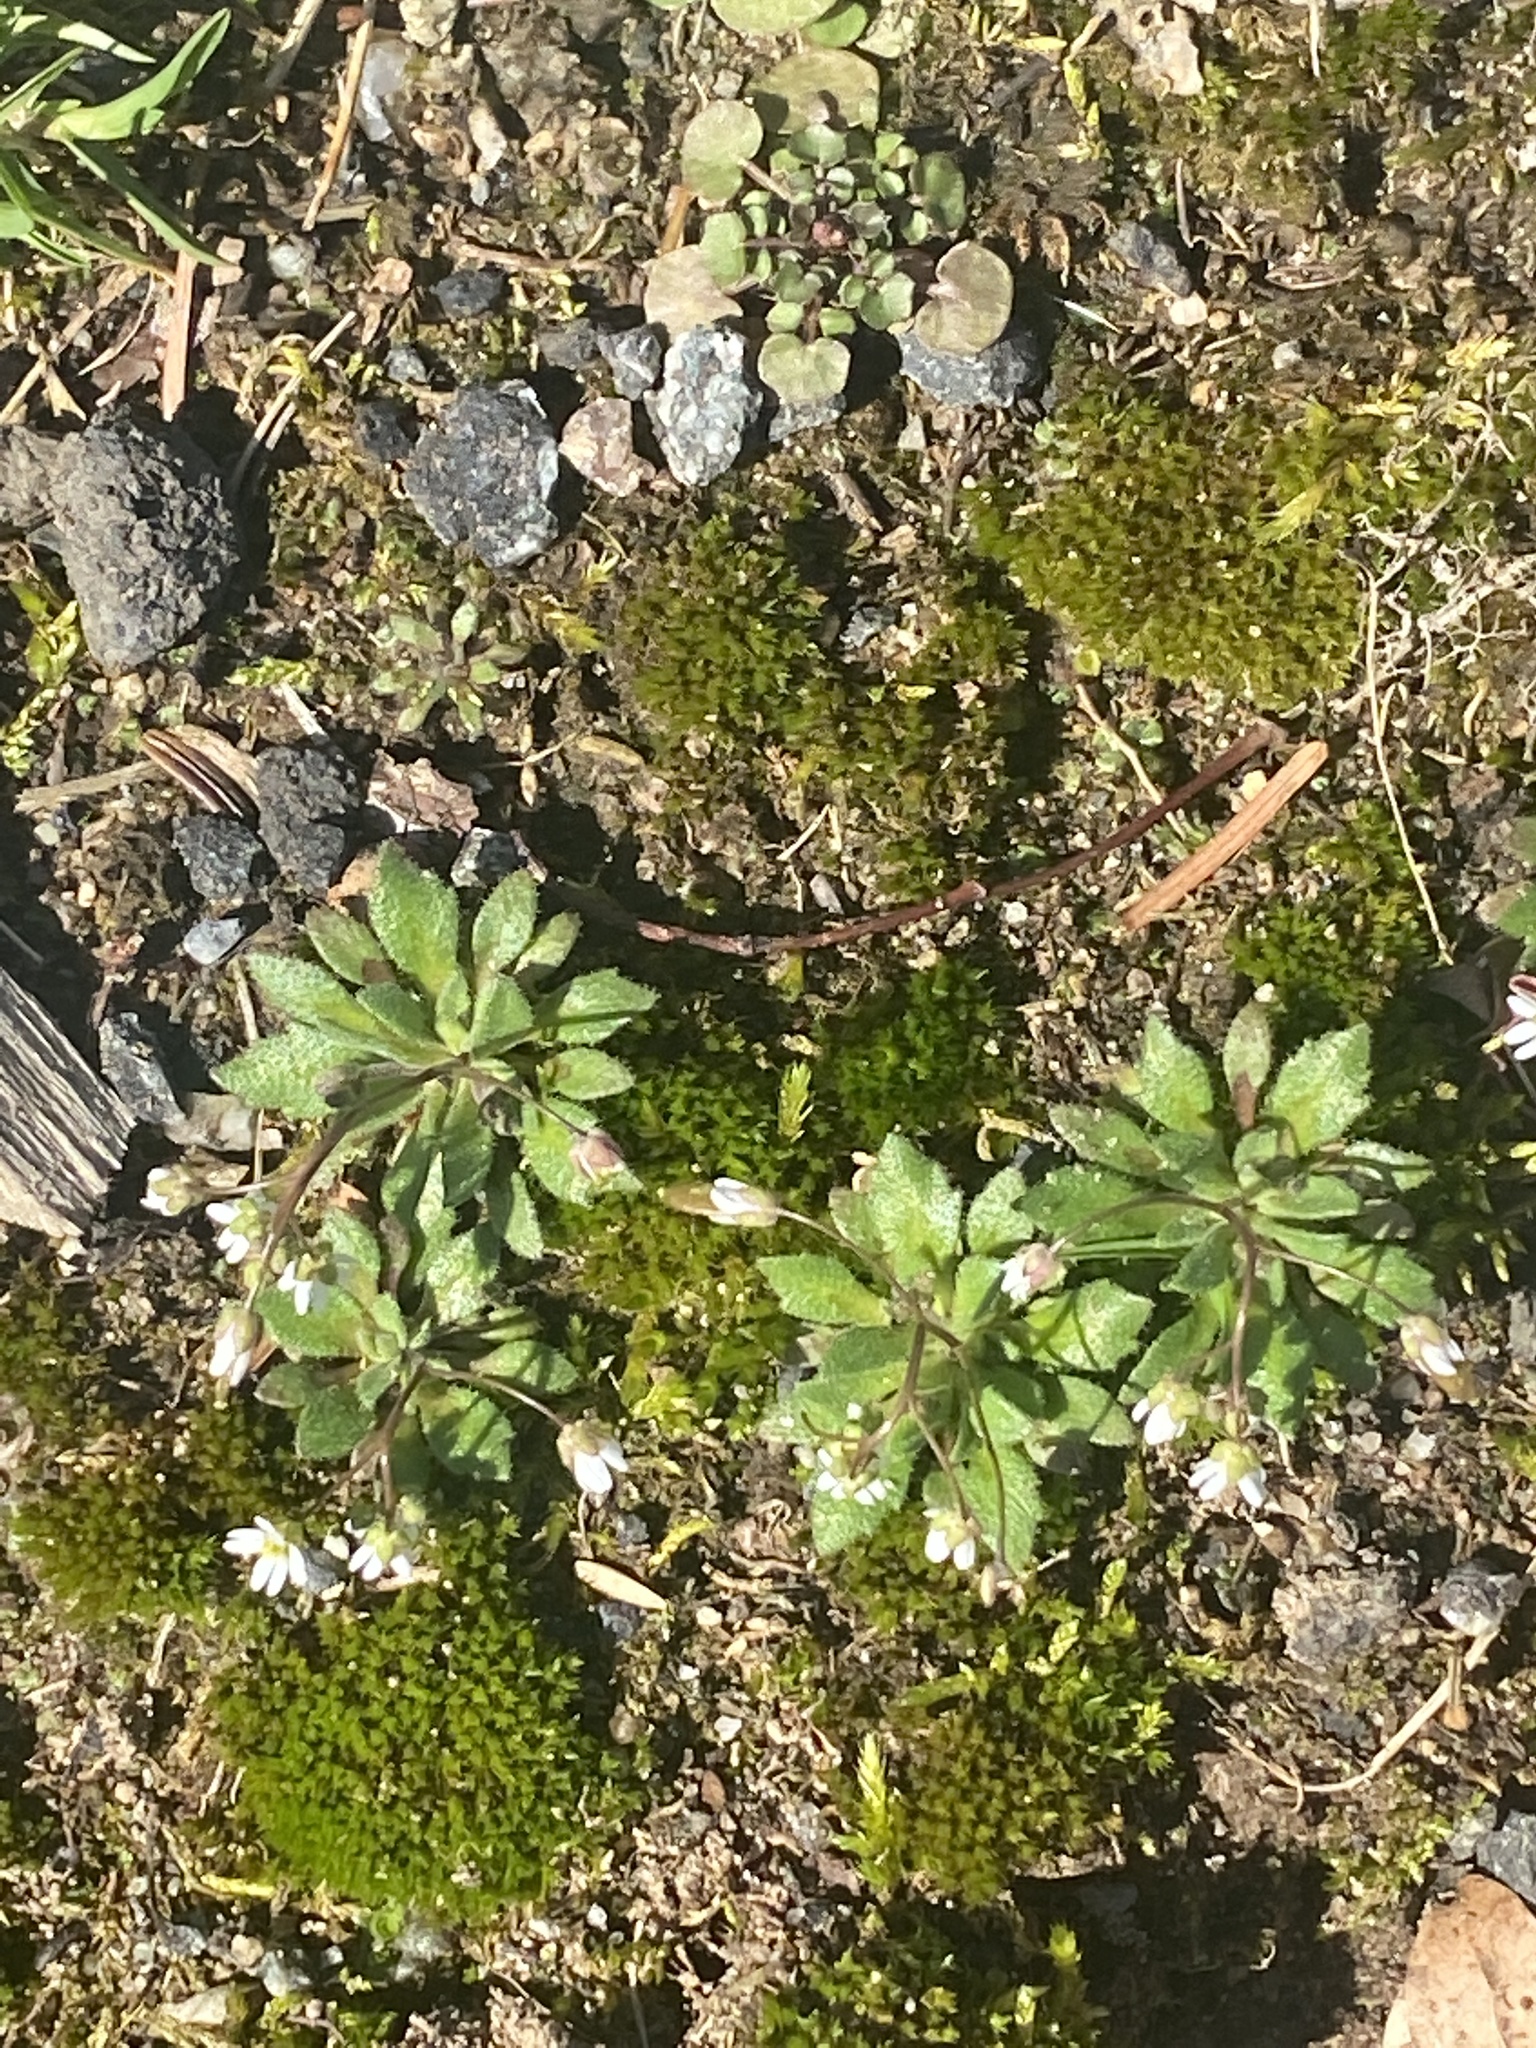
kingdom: Plantae
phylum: Tracheophyta
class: Magnoliopsida
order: Brassicales
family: Brassicaceae
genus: Draba
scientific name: Draba verna
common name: Spring draba
